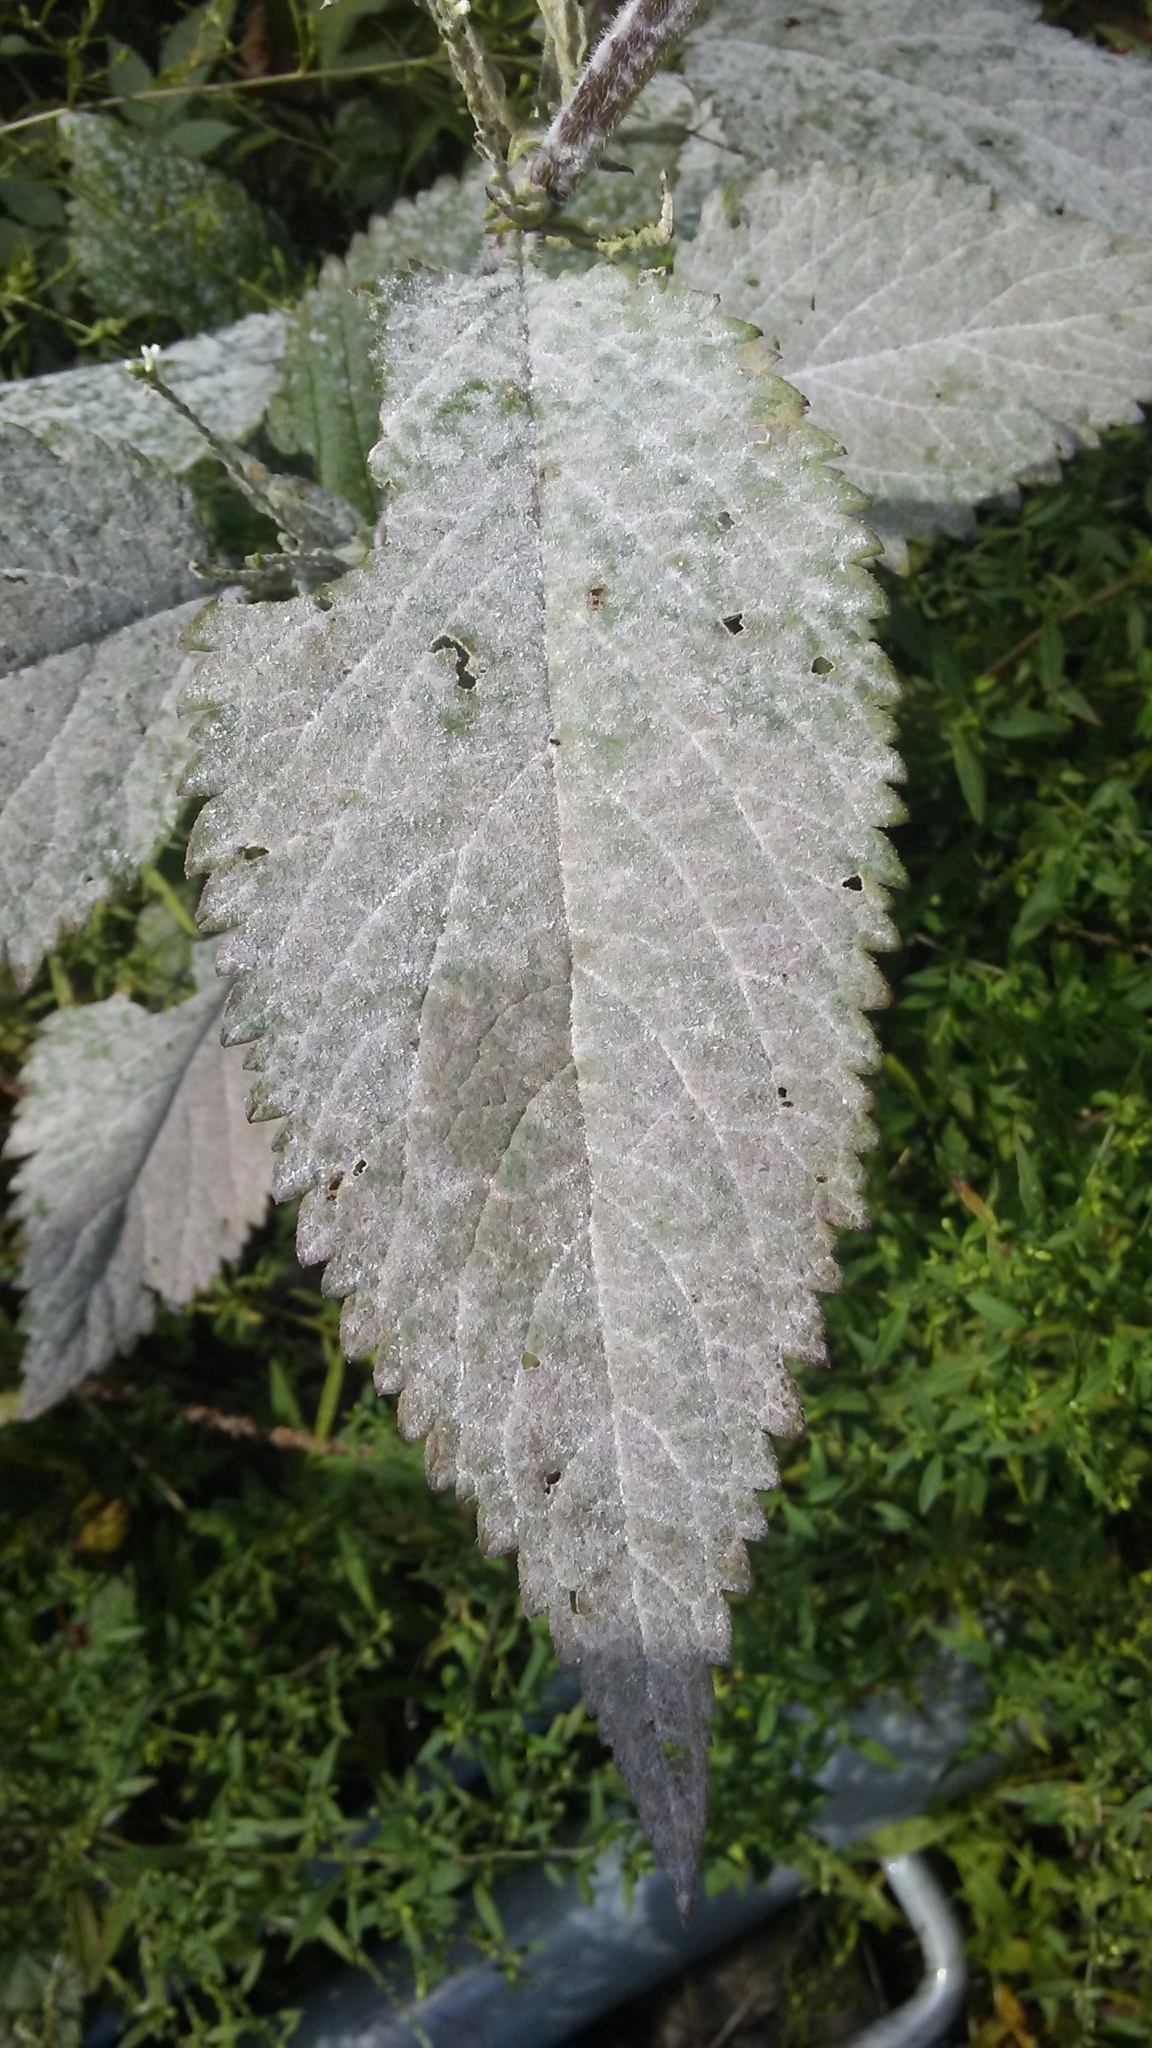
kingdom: Plantae
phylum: Tracheophyta
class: Magnoliopsida
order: Lamiales
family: Verbenaceae
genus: Verbena
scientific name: Verbena urticifolia
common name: Nettle-leaved vervain
